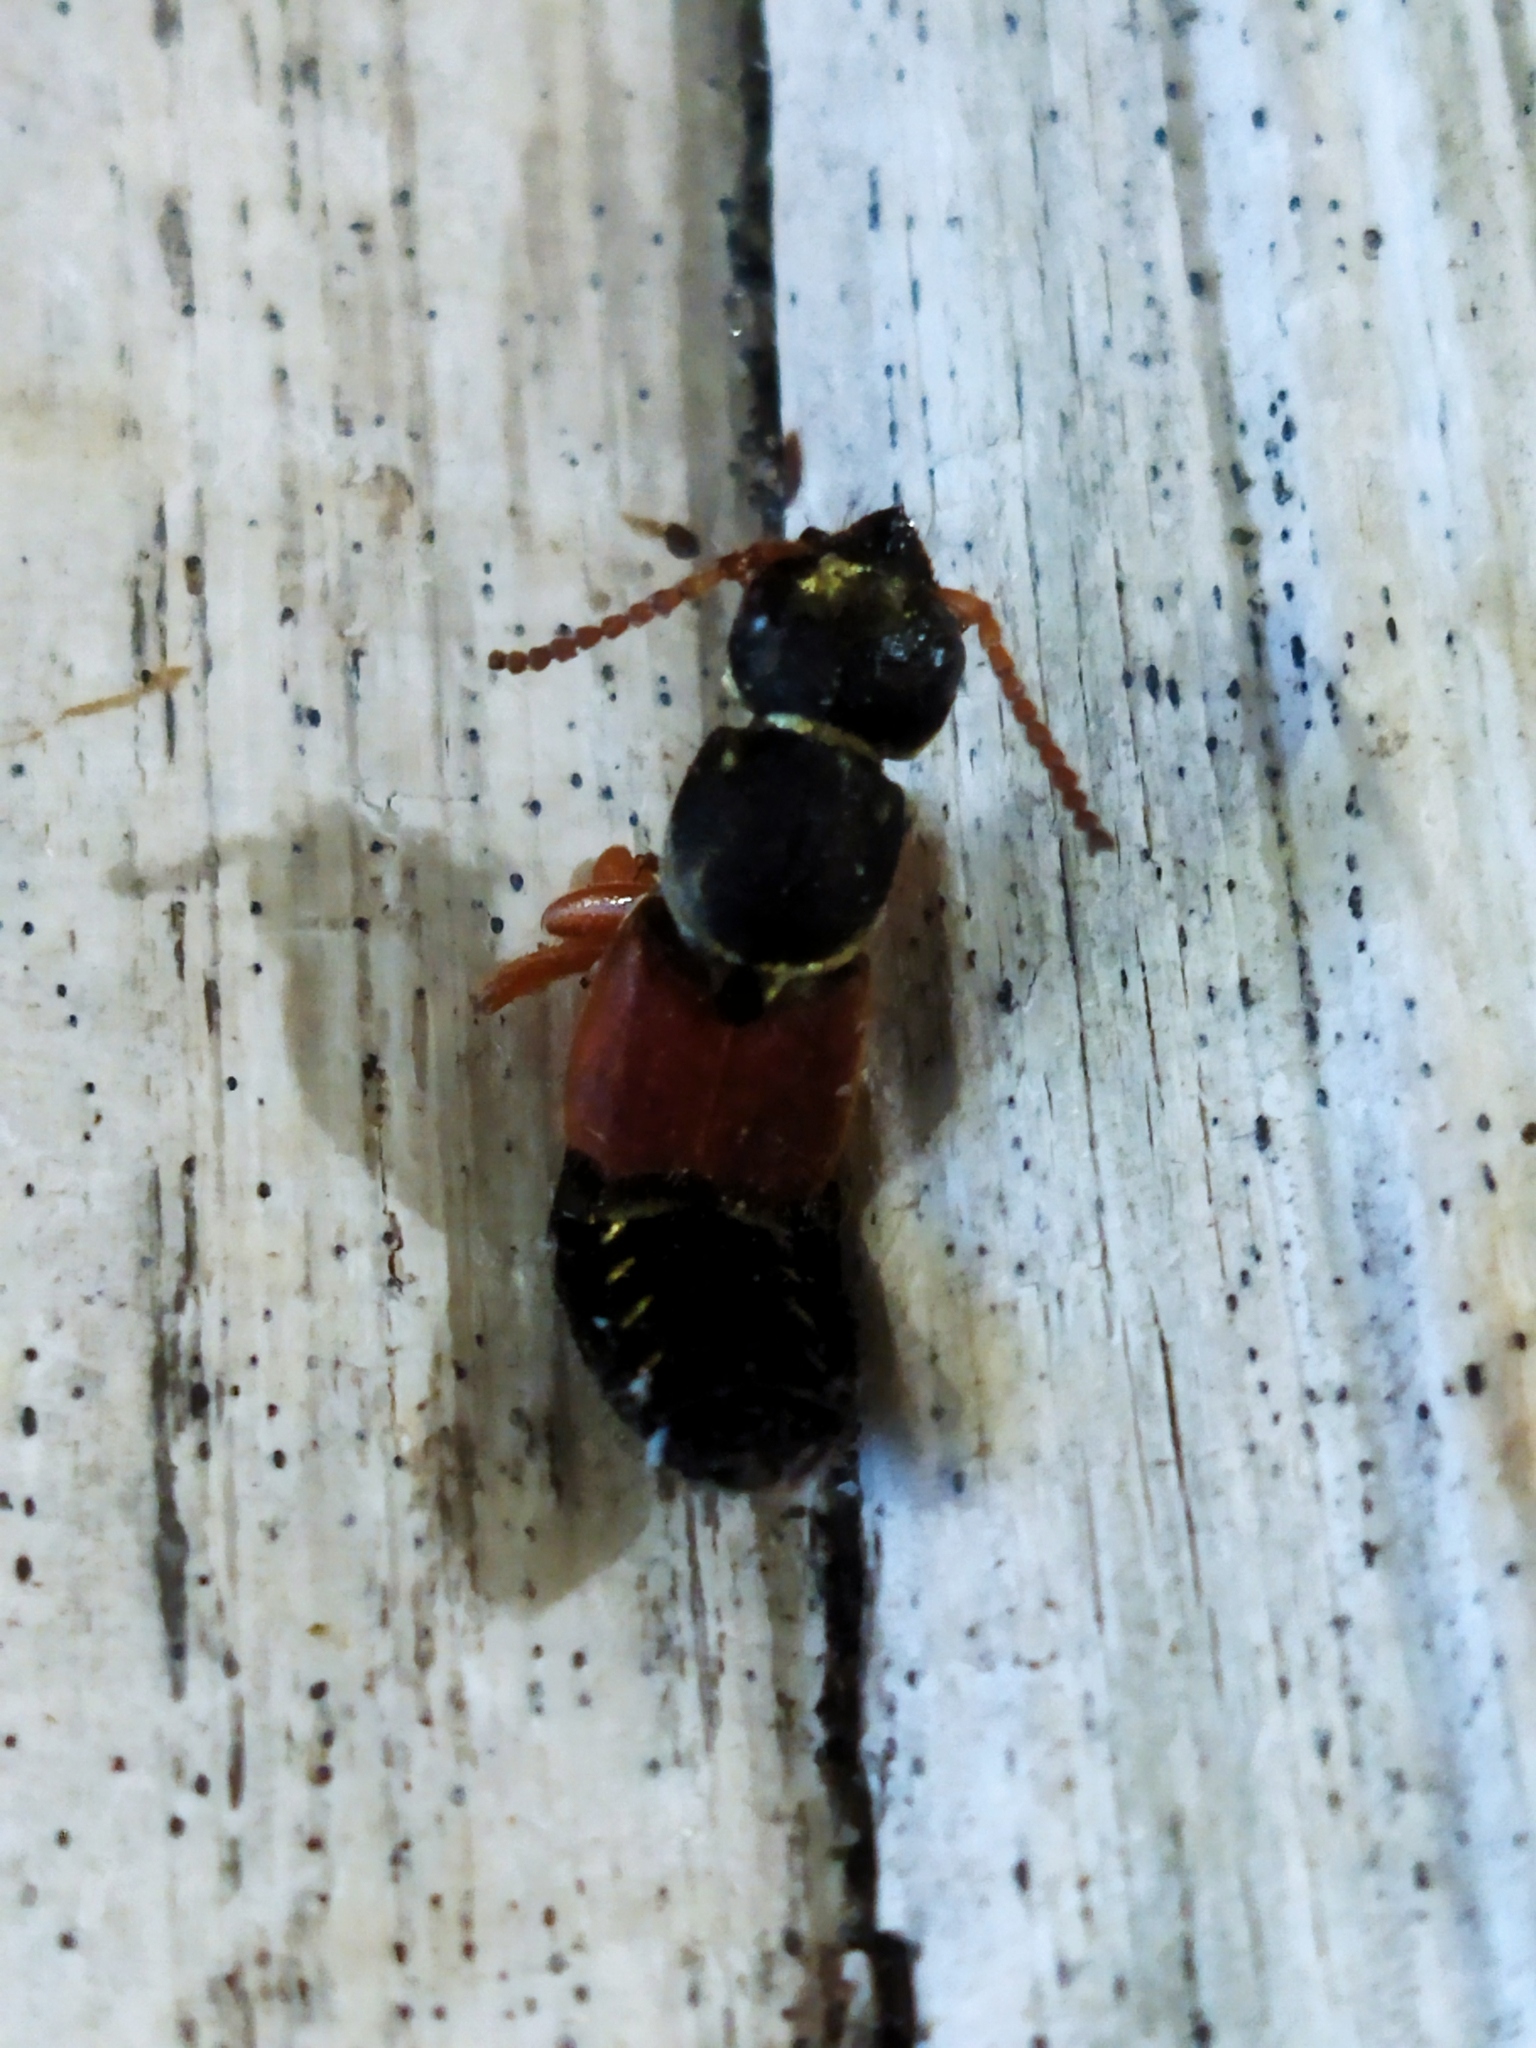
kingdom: Animalia
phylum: Arthropoda
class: Insecta
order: Coleoptera
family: Staphylinidae
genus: Staphylinus
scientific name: Staphylinus caesareus
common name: Staph beetle
